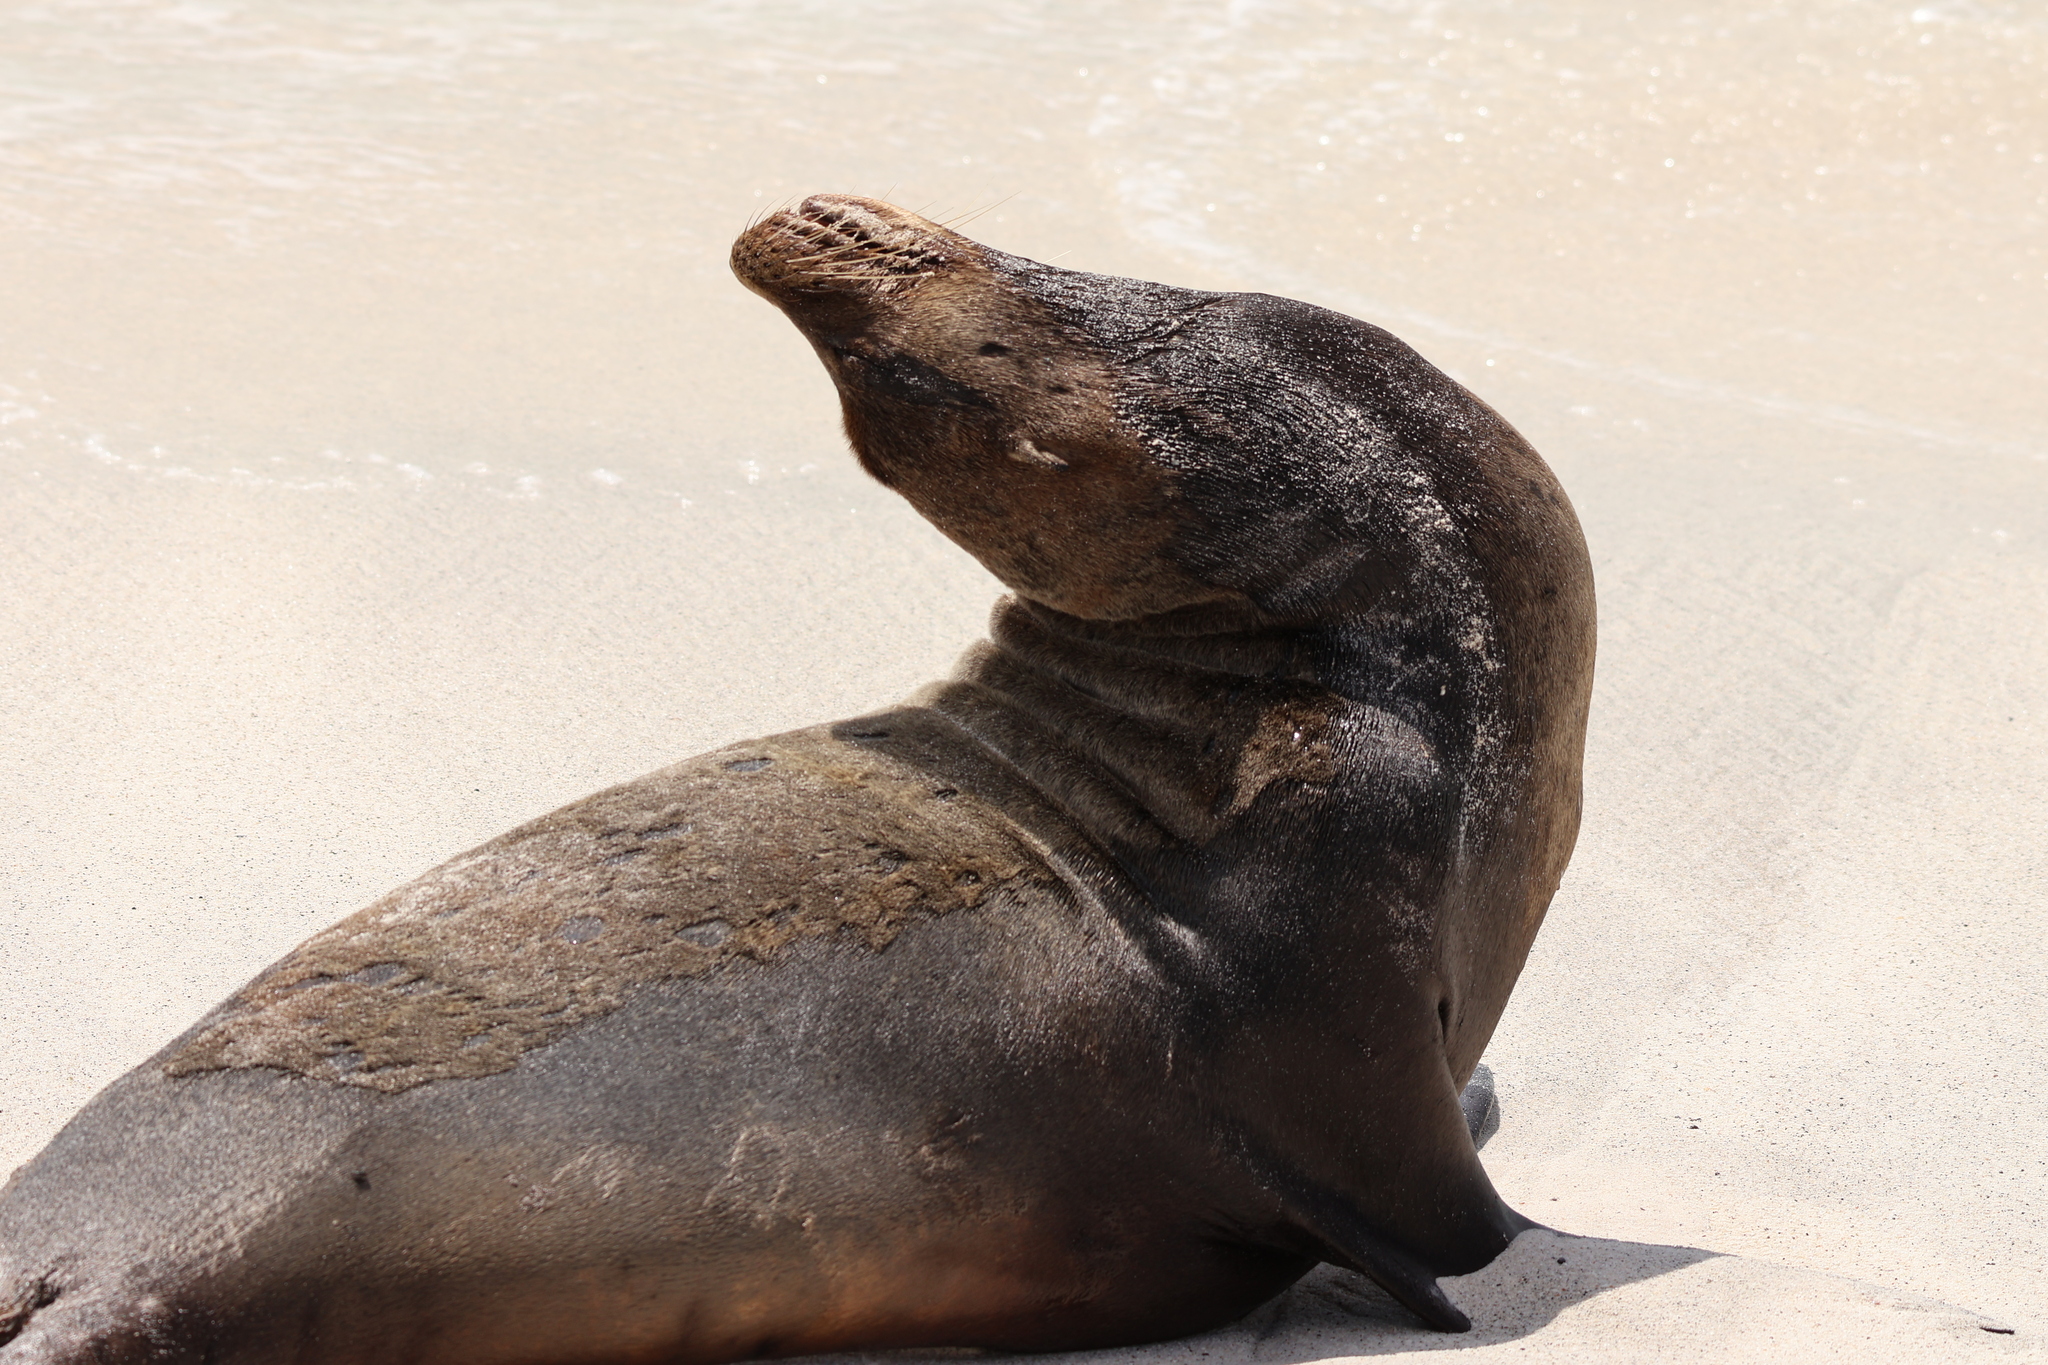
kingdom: Animalia
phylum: Chordata
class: Mammalia
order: Carnivora
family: Otariidae
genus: Zalophus
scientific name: Zalophus wollebaeki
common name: Galapagos sea lion
